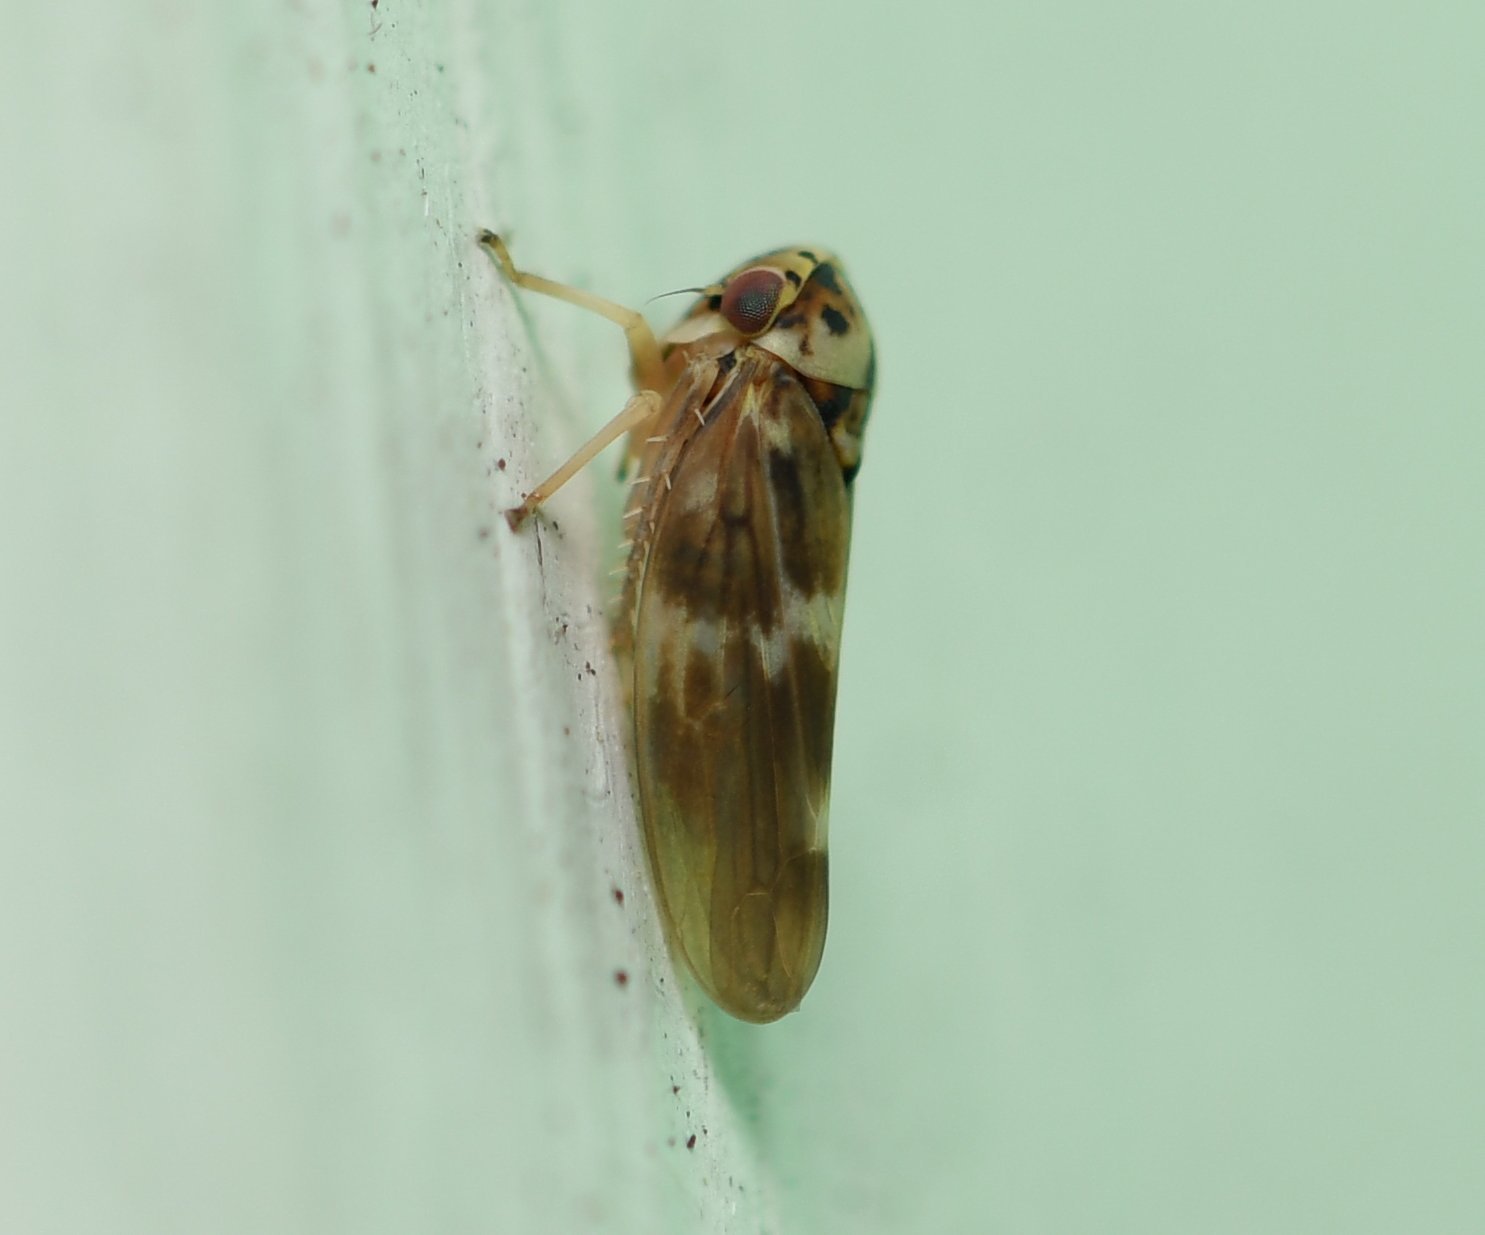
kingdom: Animalia
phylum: Arthropoda
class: Insecta
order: Hemiptera
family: Cicadellidae
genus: Agalliopsis
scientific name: Agalliopsis cervina
